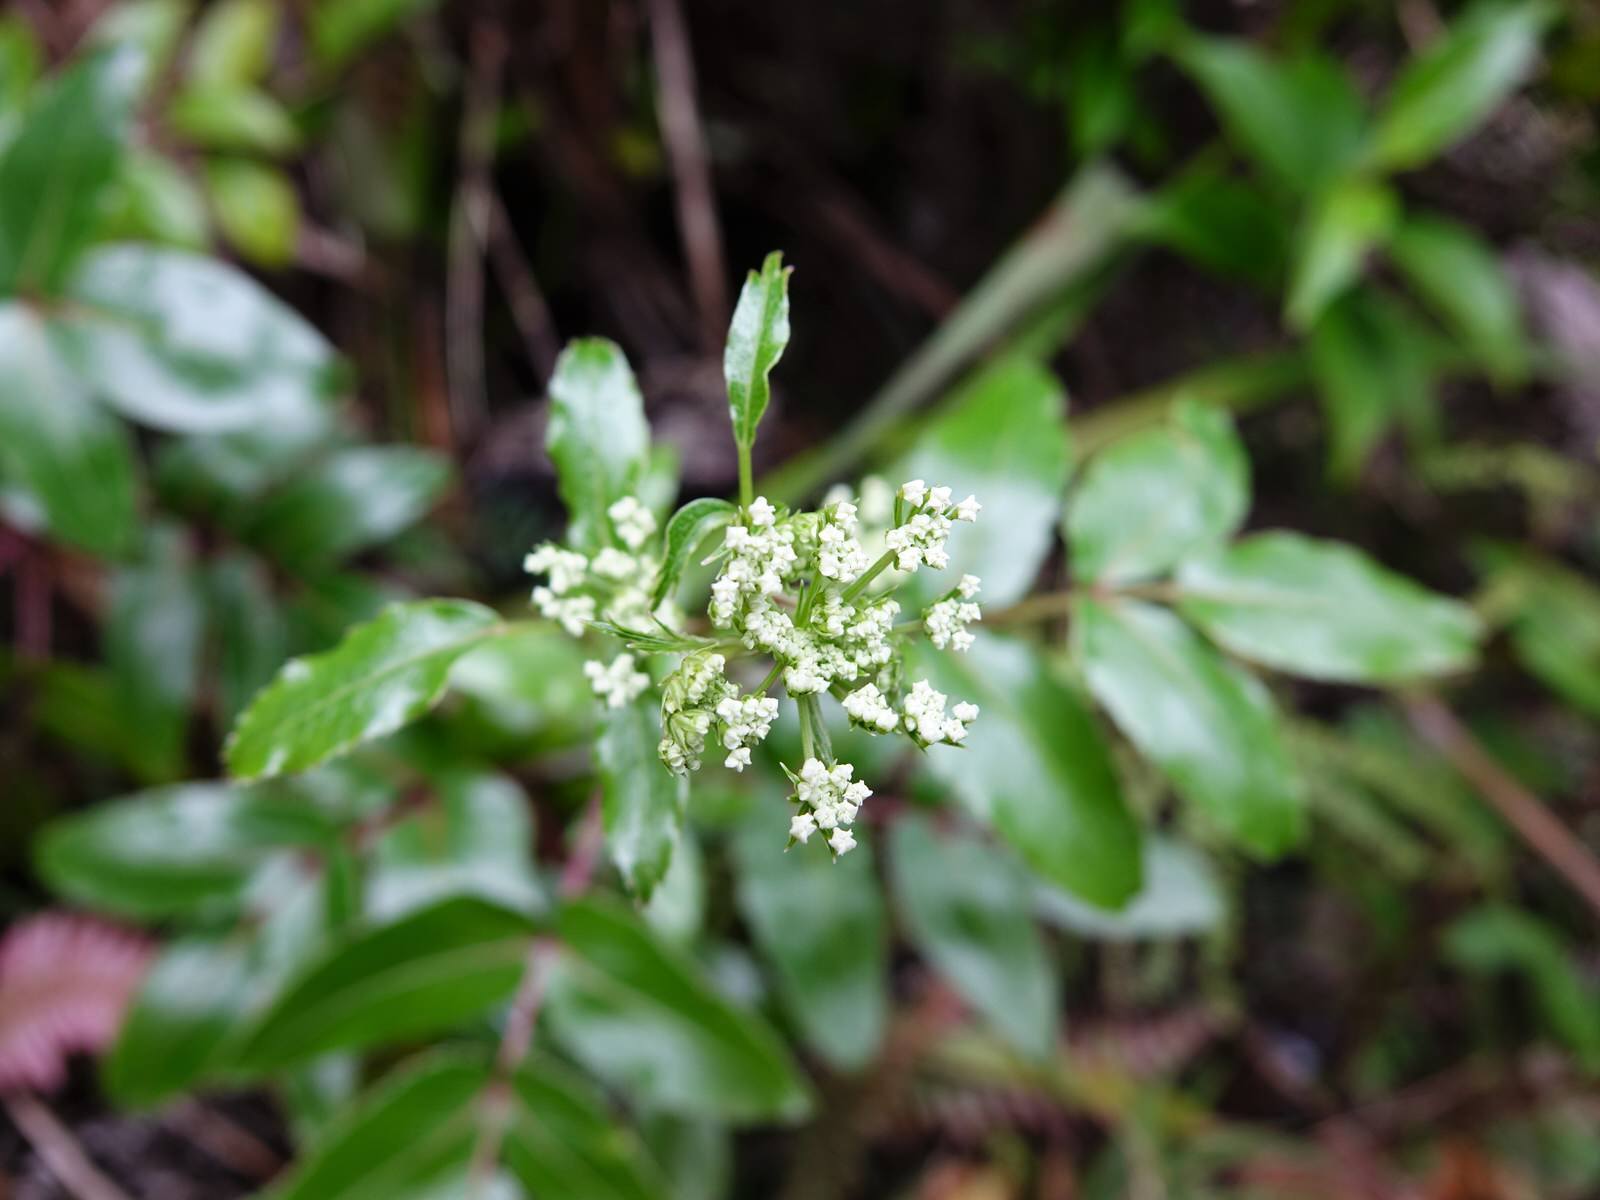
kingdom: Plantae
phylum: Tracheophyta
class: Magnoliopsida
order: Apiales
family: Apiaceae
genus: Scandia
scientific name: Scandia rosifolia
